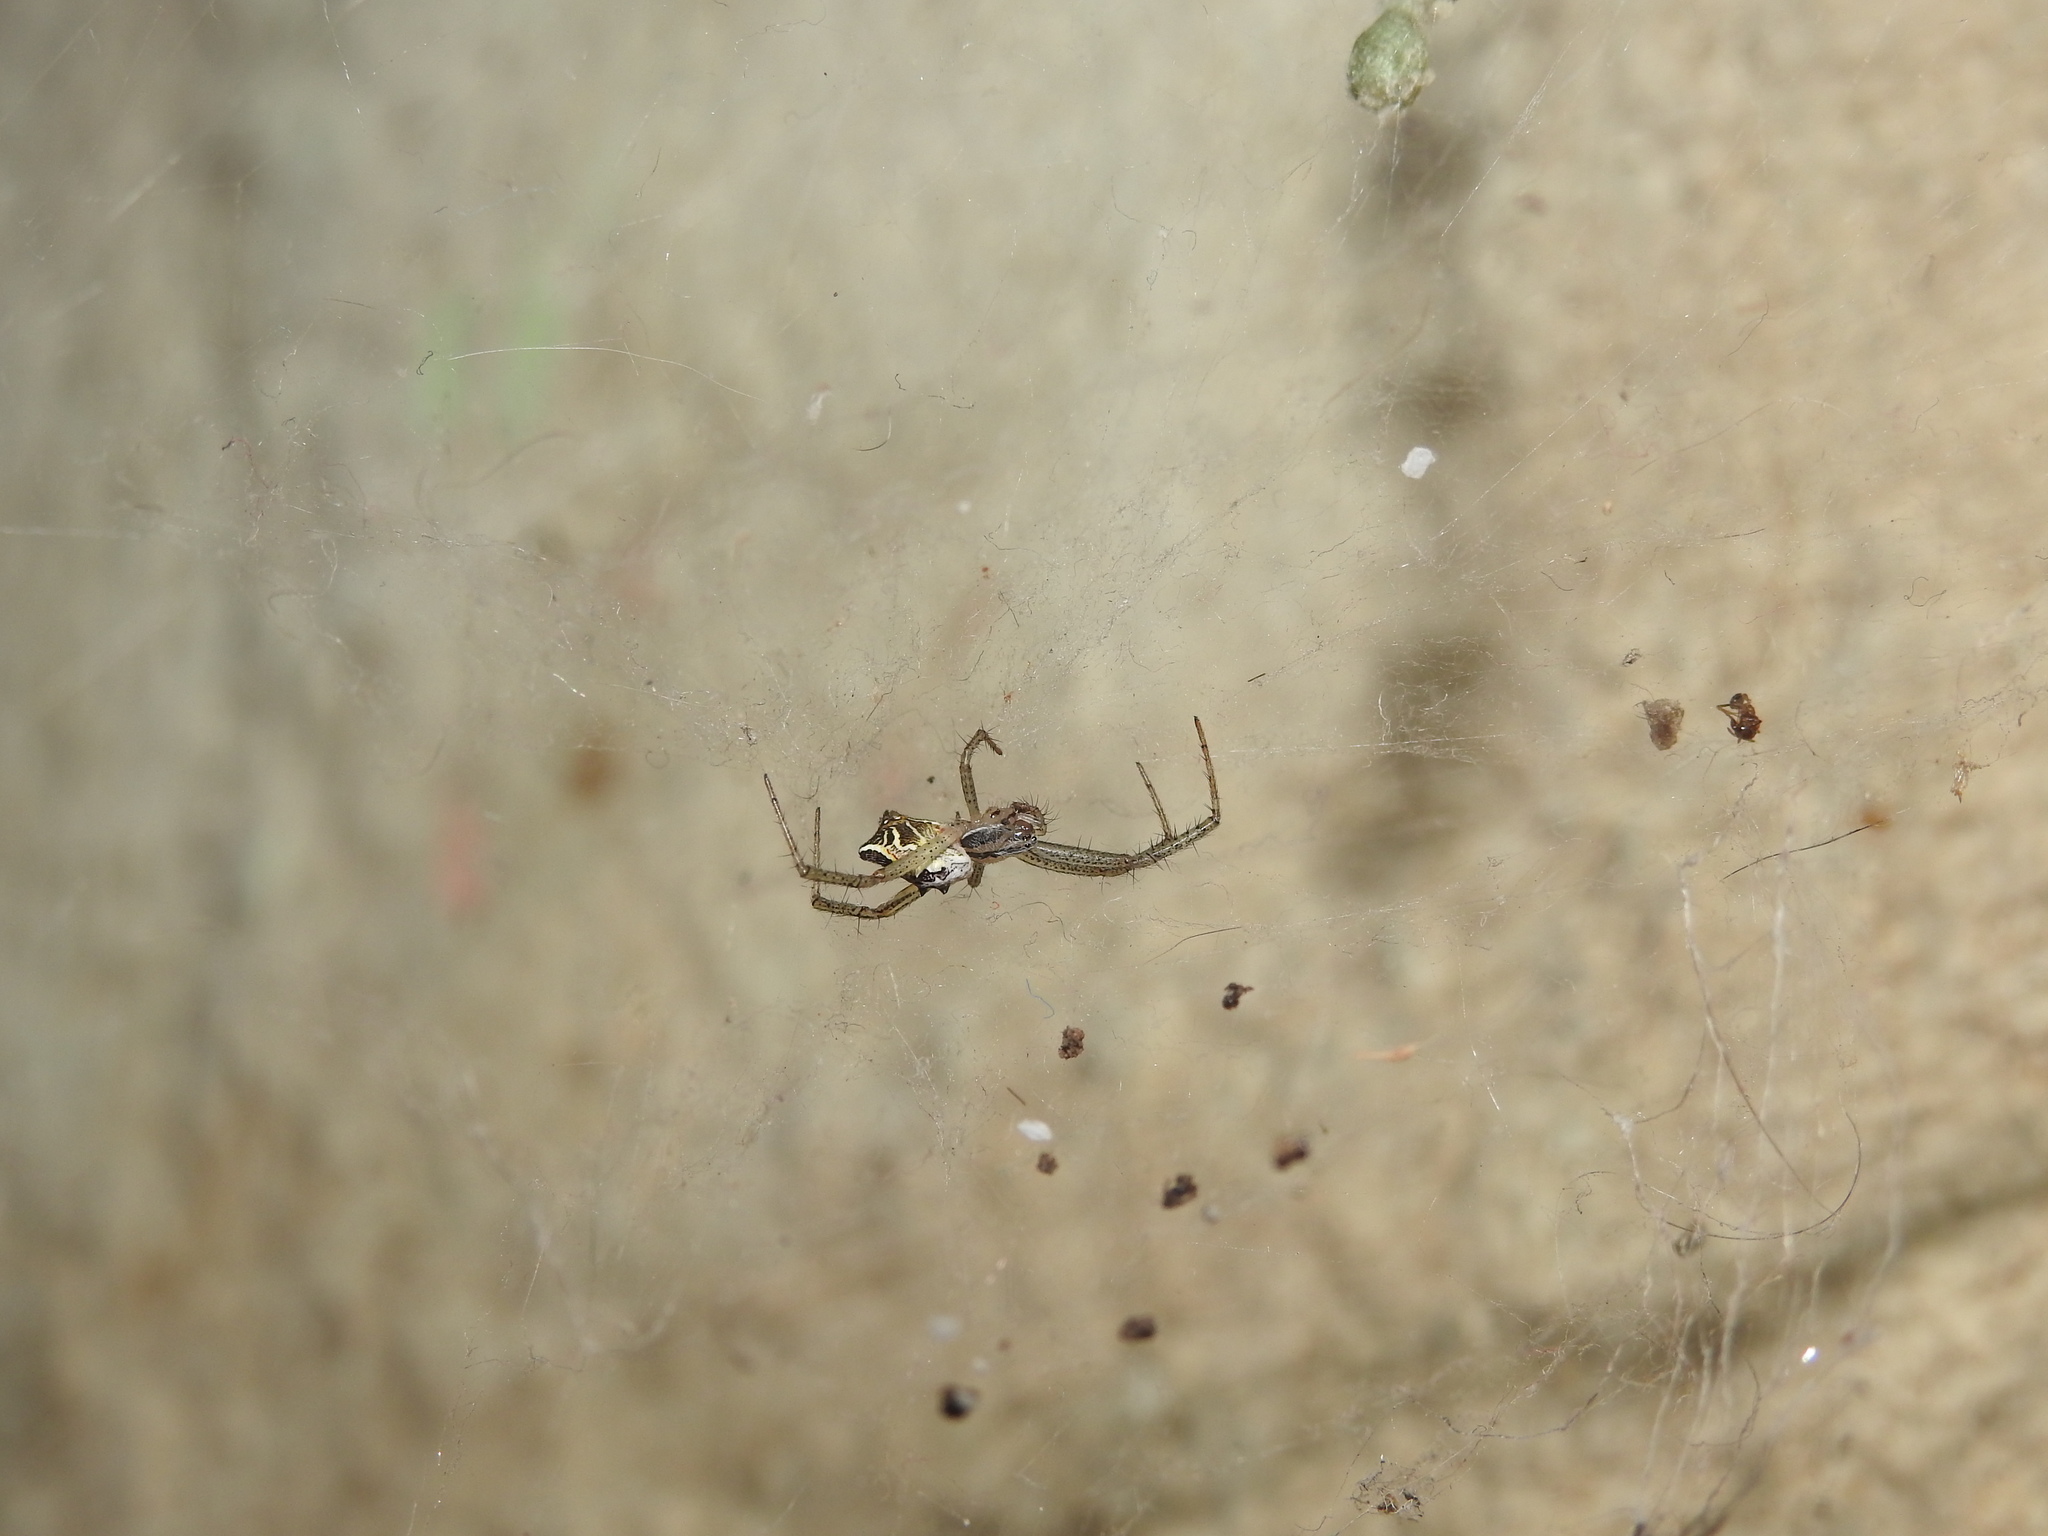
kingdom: Animalia
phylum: Arthropoda
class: Arachnida
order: Araneae
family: Araneidae
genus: Cyrtophora
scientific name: Cyrtophora cicatrosa
